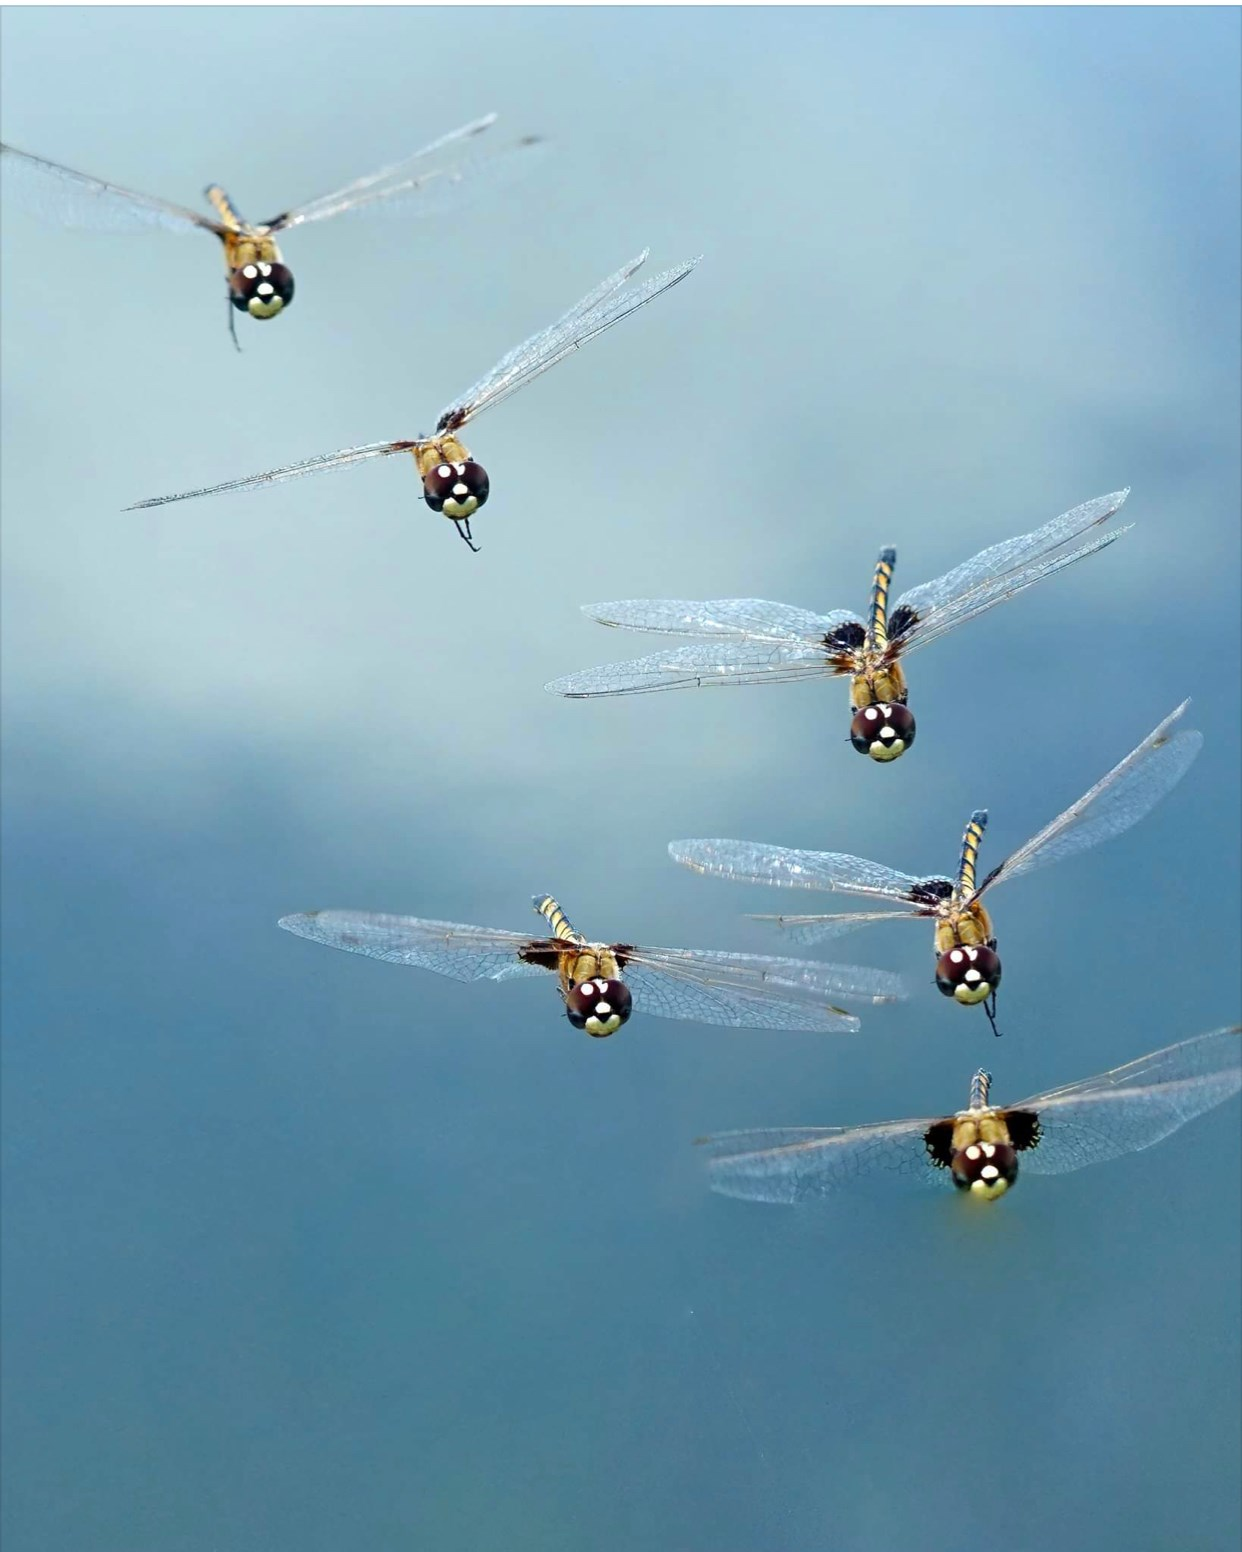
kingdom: Animalia
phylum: Arthropoda
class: Insecta
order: Odonata
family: Libellulidae
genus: Macrodiplax
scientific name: Macrodiplax balteata
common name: Marl pennant
